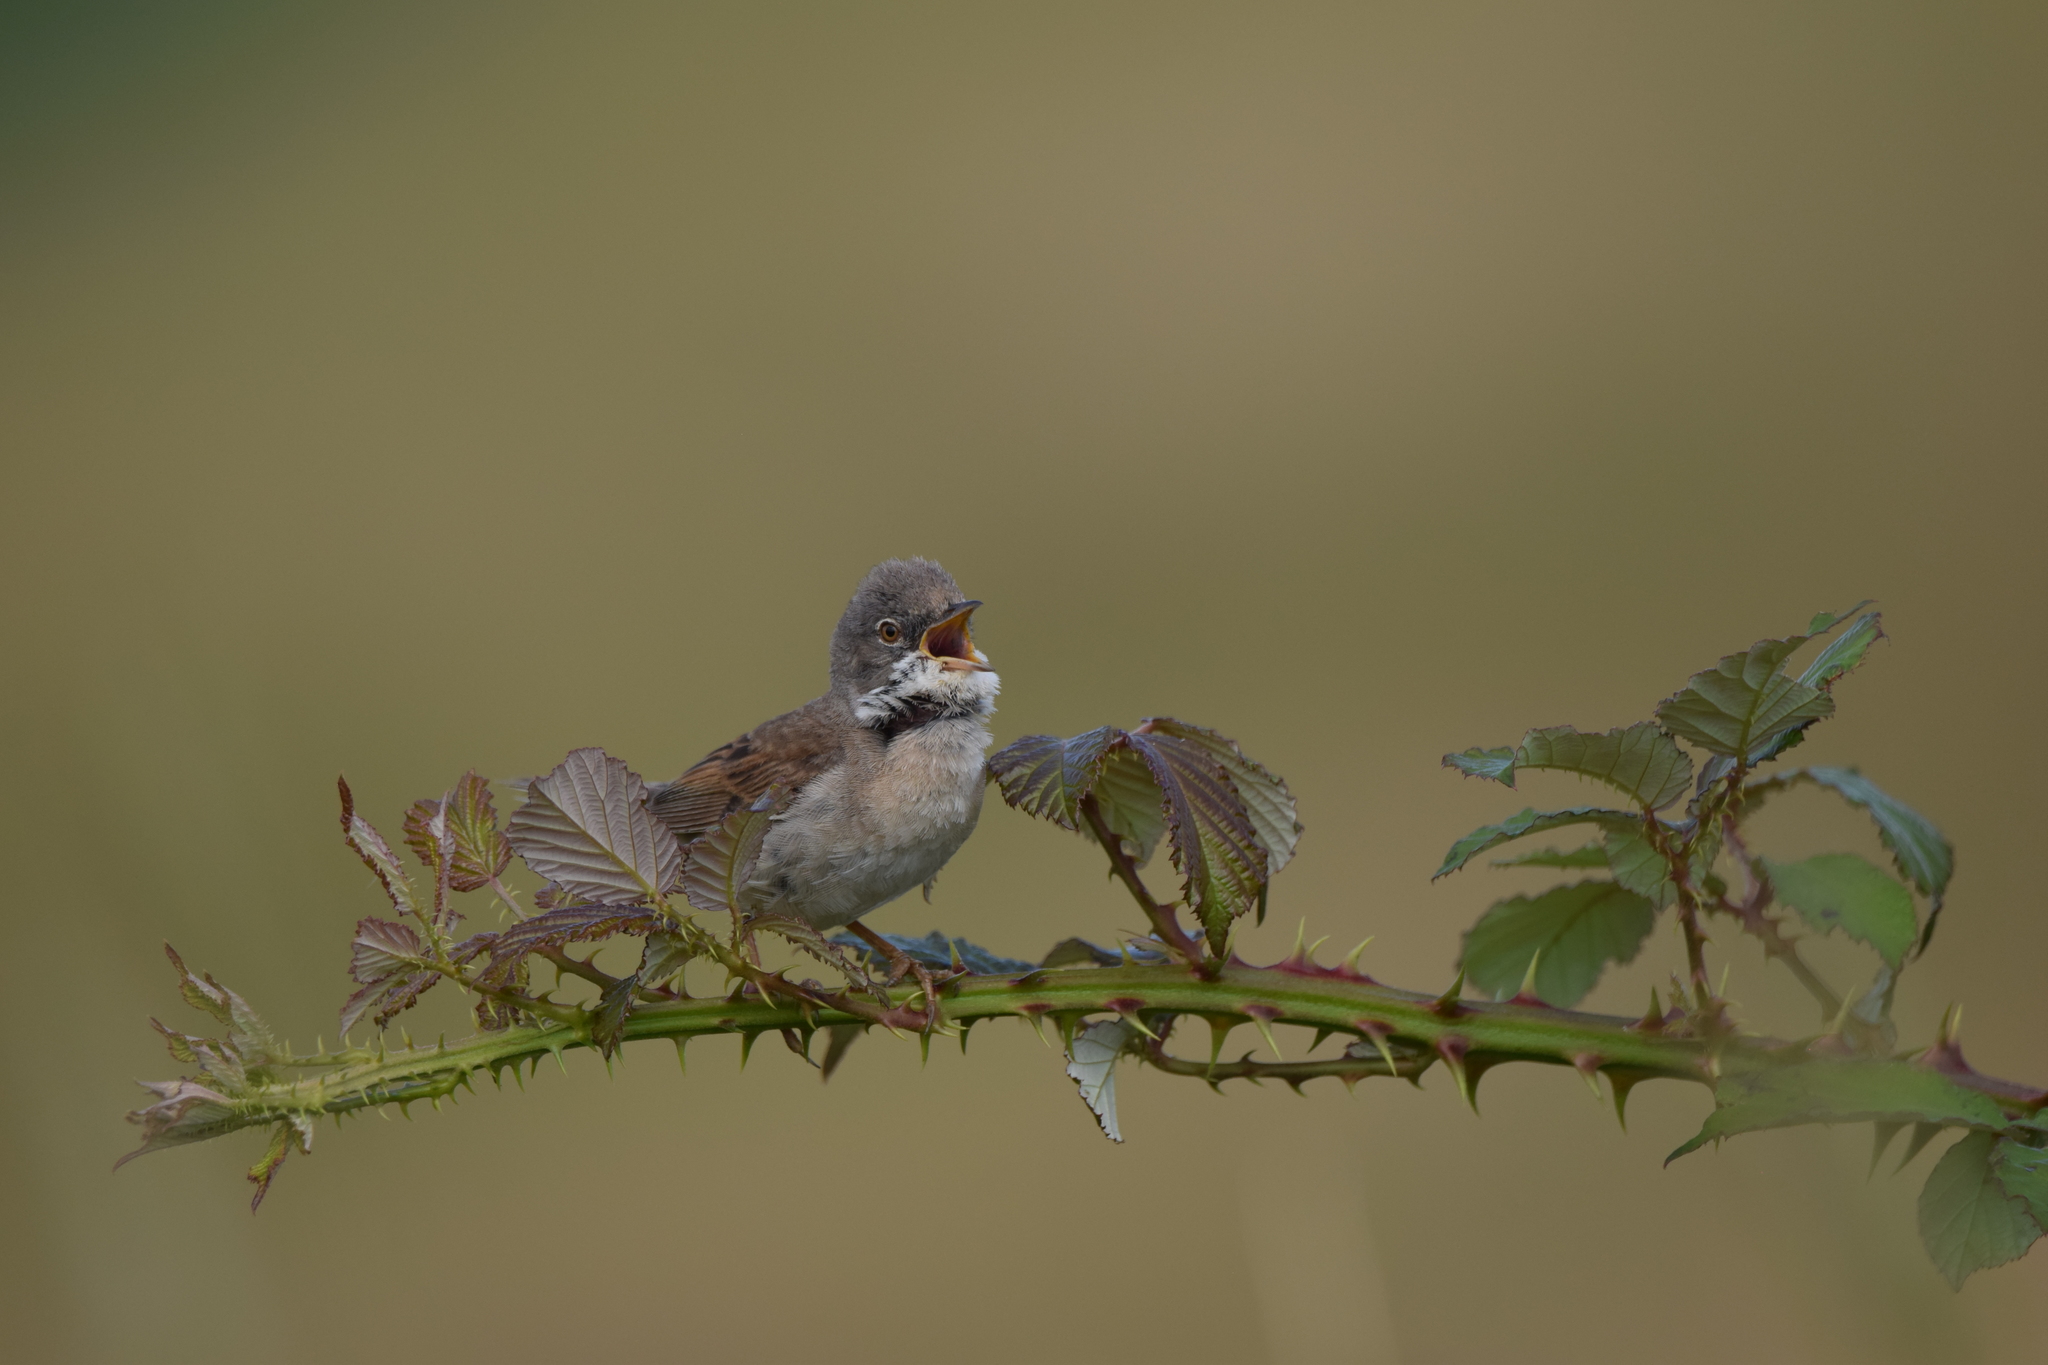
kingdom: Animalia
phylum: Chordata
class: Aves
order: Passeriformes
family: Sylviidae
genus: Sylvia
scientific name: Sylvia communis
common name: Common whitethroat
